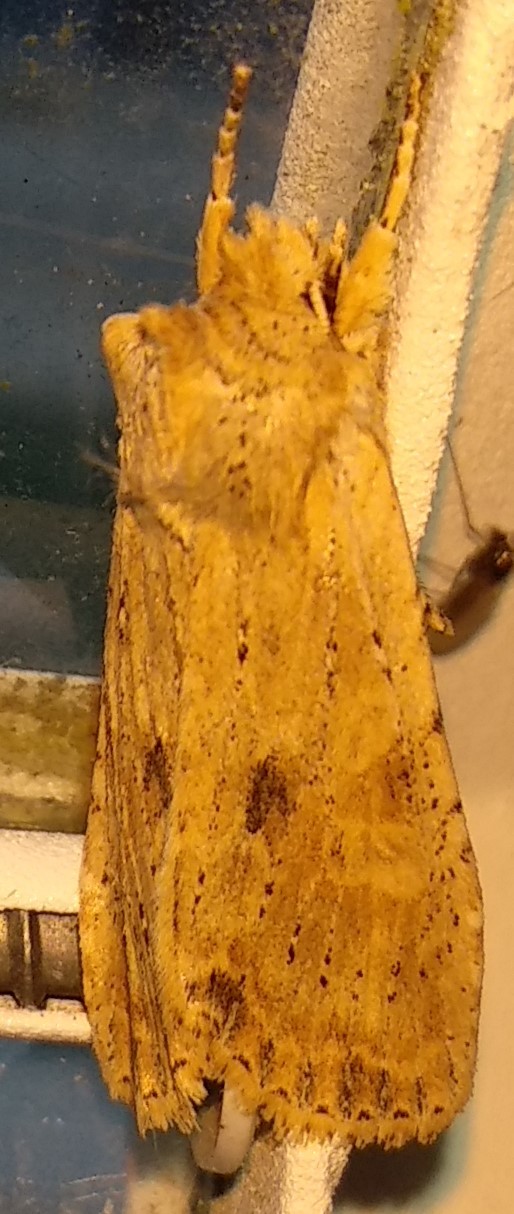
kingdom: Animalia
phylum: Arthropoda
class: Insecta
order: Lepidoptera
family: Noctuidae
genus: Lithophane
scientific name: Lithophane innominata
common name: Nameless pinion moth
